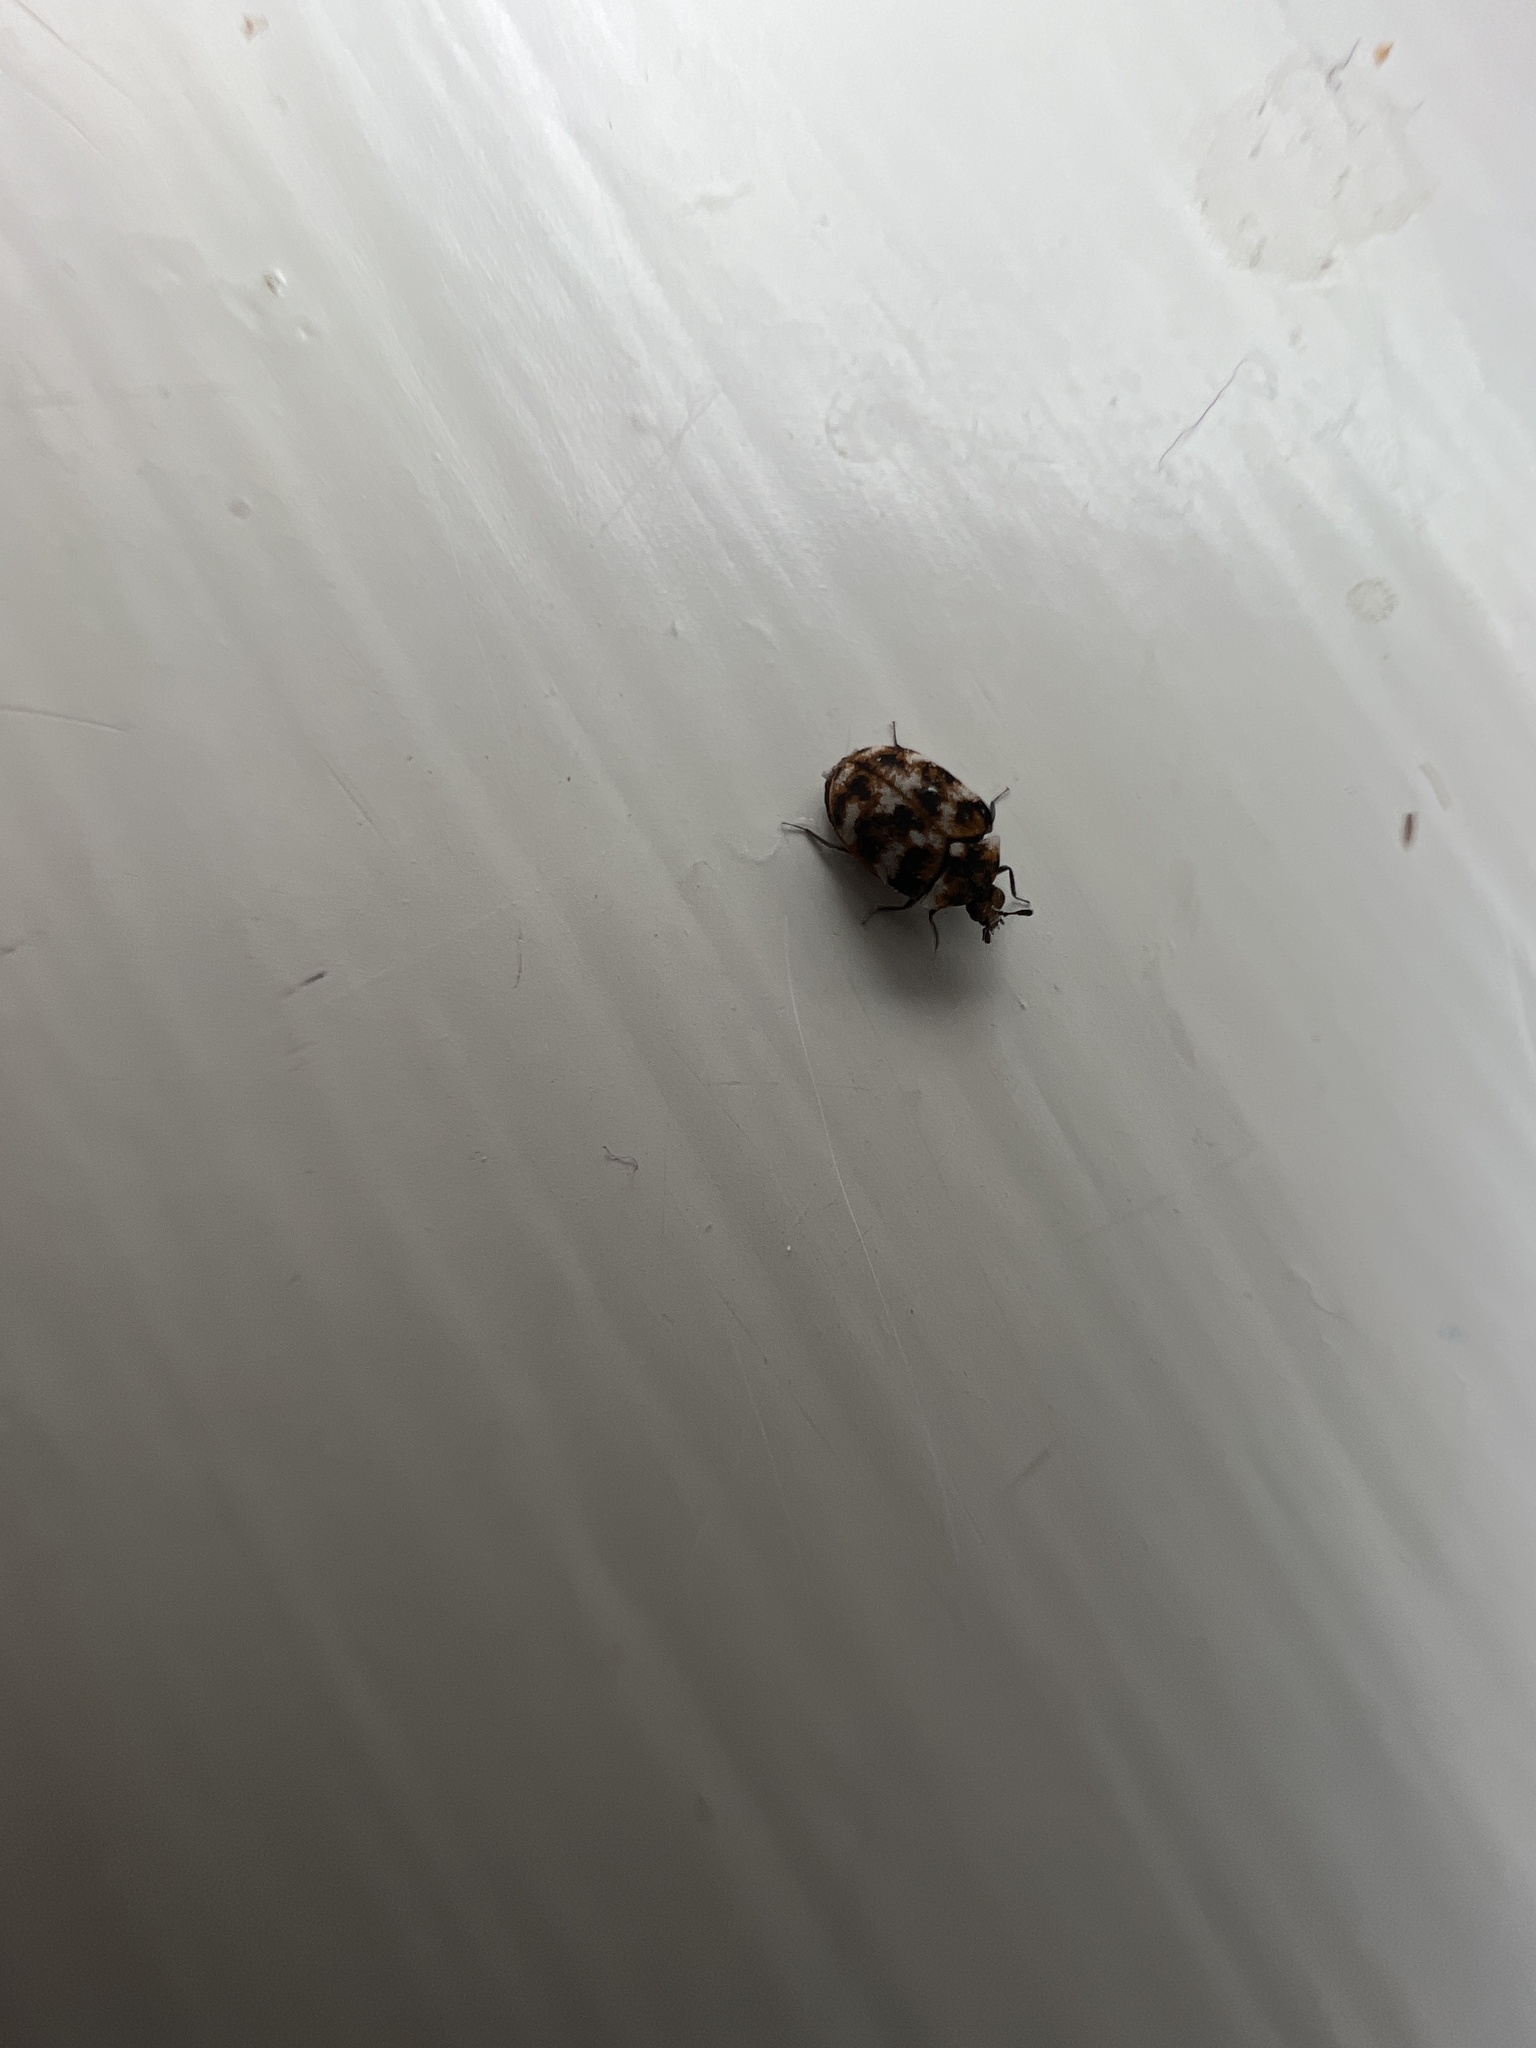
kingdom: Animalia
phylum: Arthropoda
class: Insecta
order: Coleoptera
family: Dermestidae
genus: Anthrenus
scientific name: Anthrenus verbasci
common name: Varied carpet beetle
